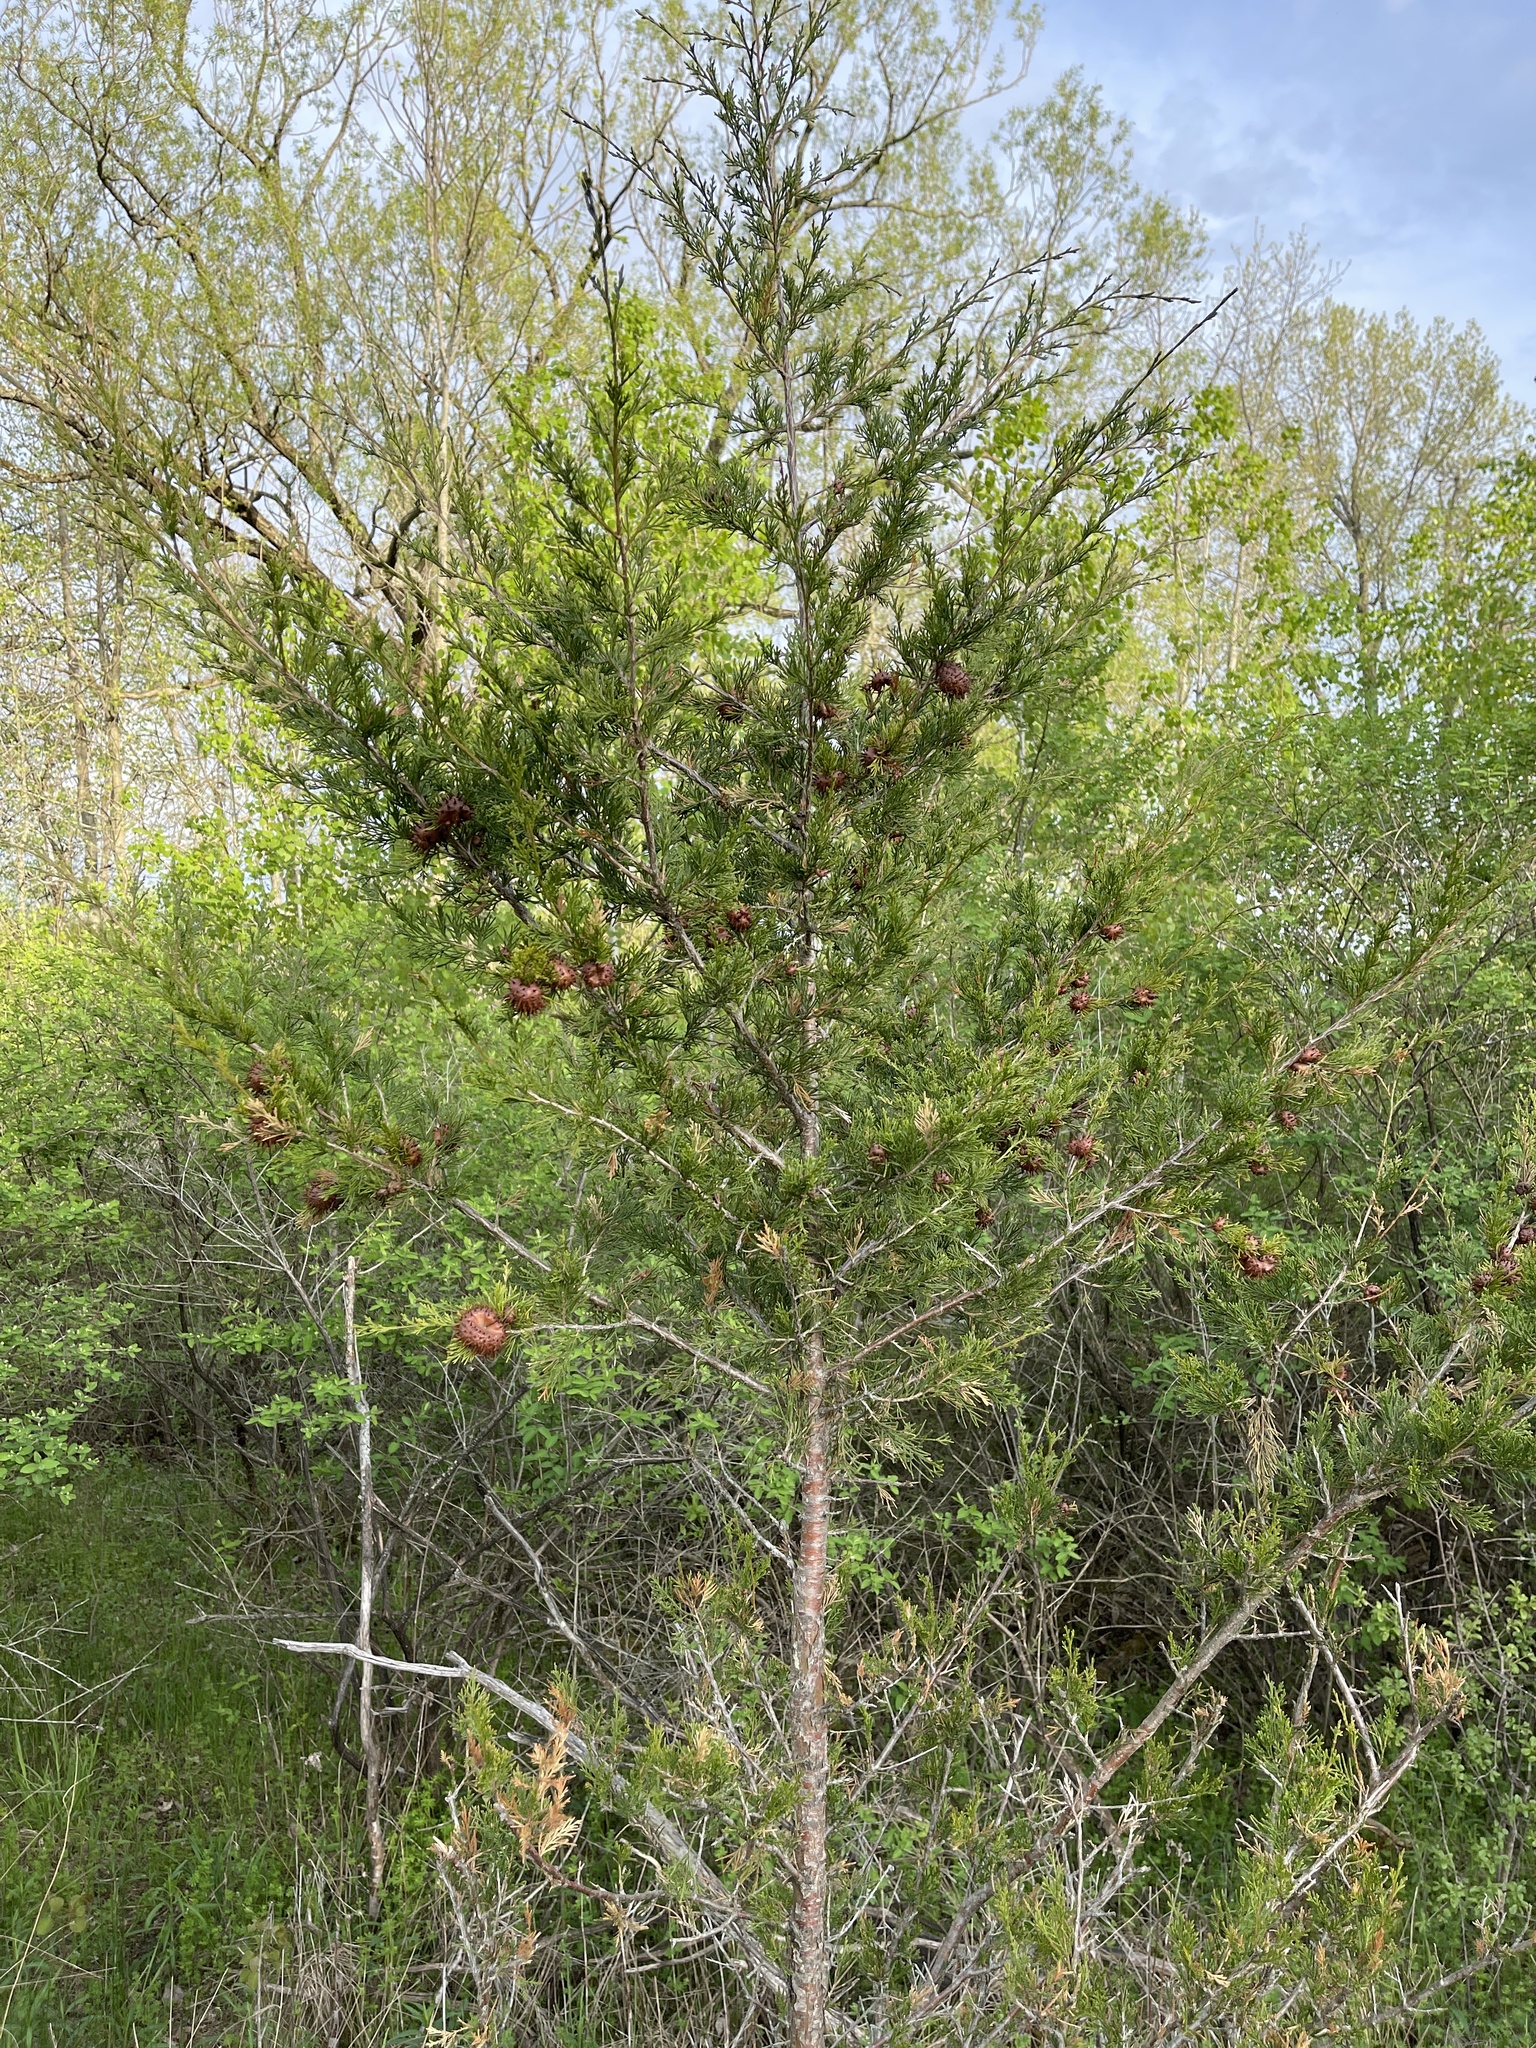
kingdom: Fungi
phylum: Basidiomycota
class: Pucciniomycetes
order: Pucciniales
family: Gymnosporangiaceae
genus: Gymnosporangium
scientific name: Gymnosporangium juniperi-virginianae
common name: Juniper-apple rust
